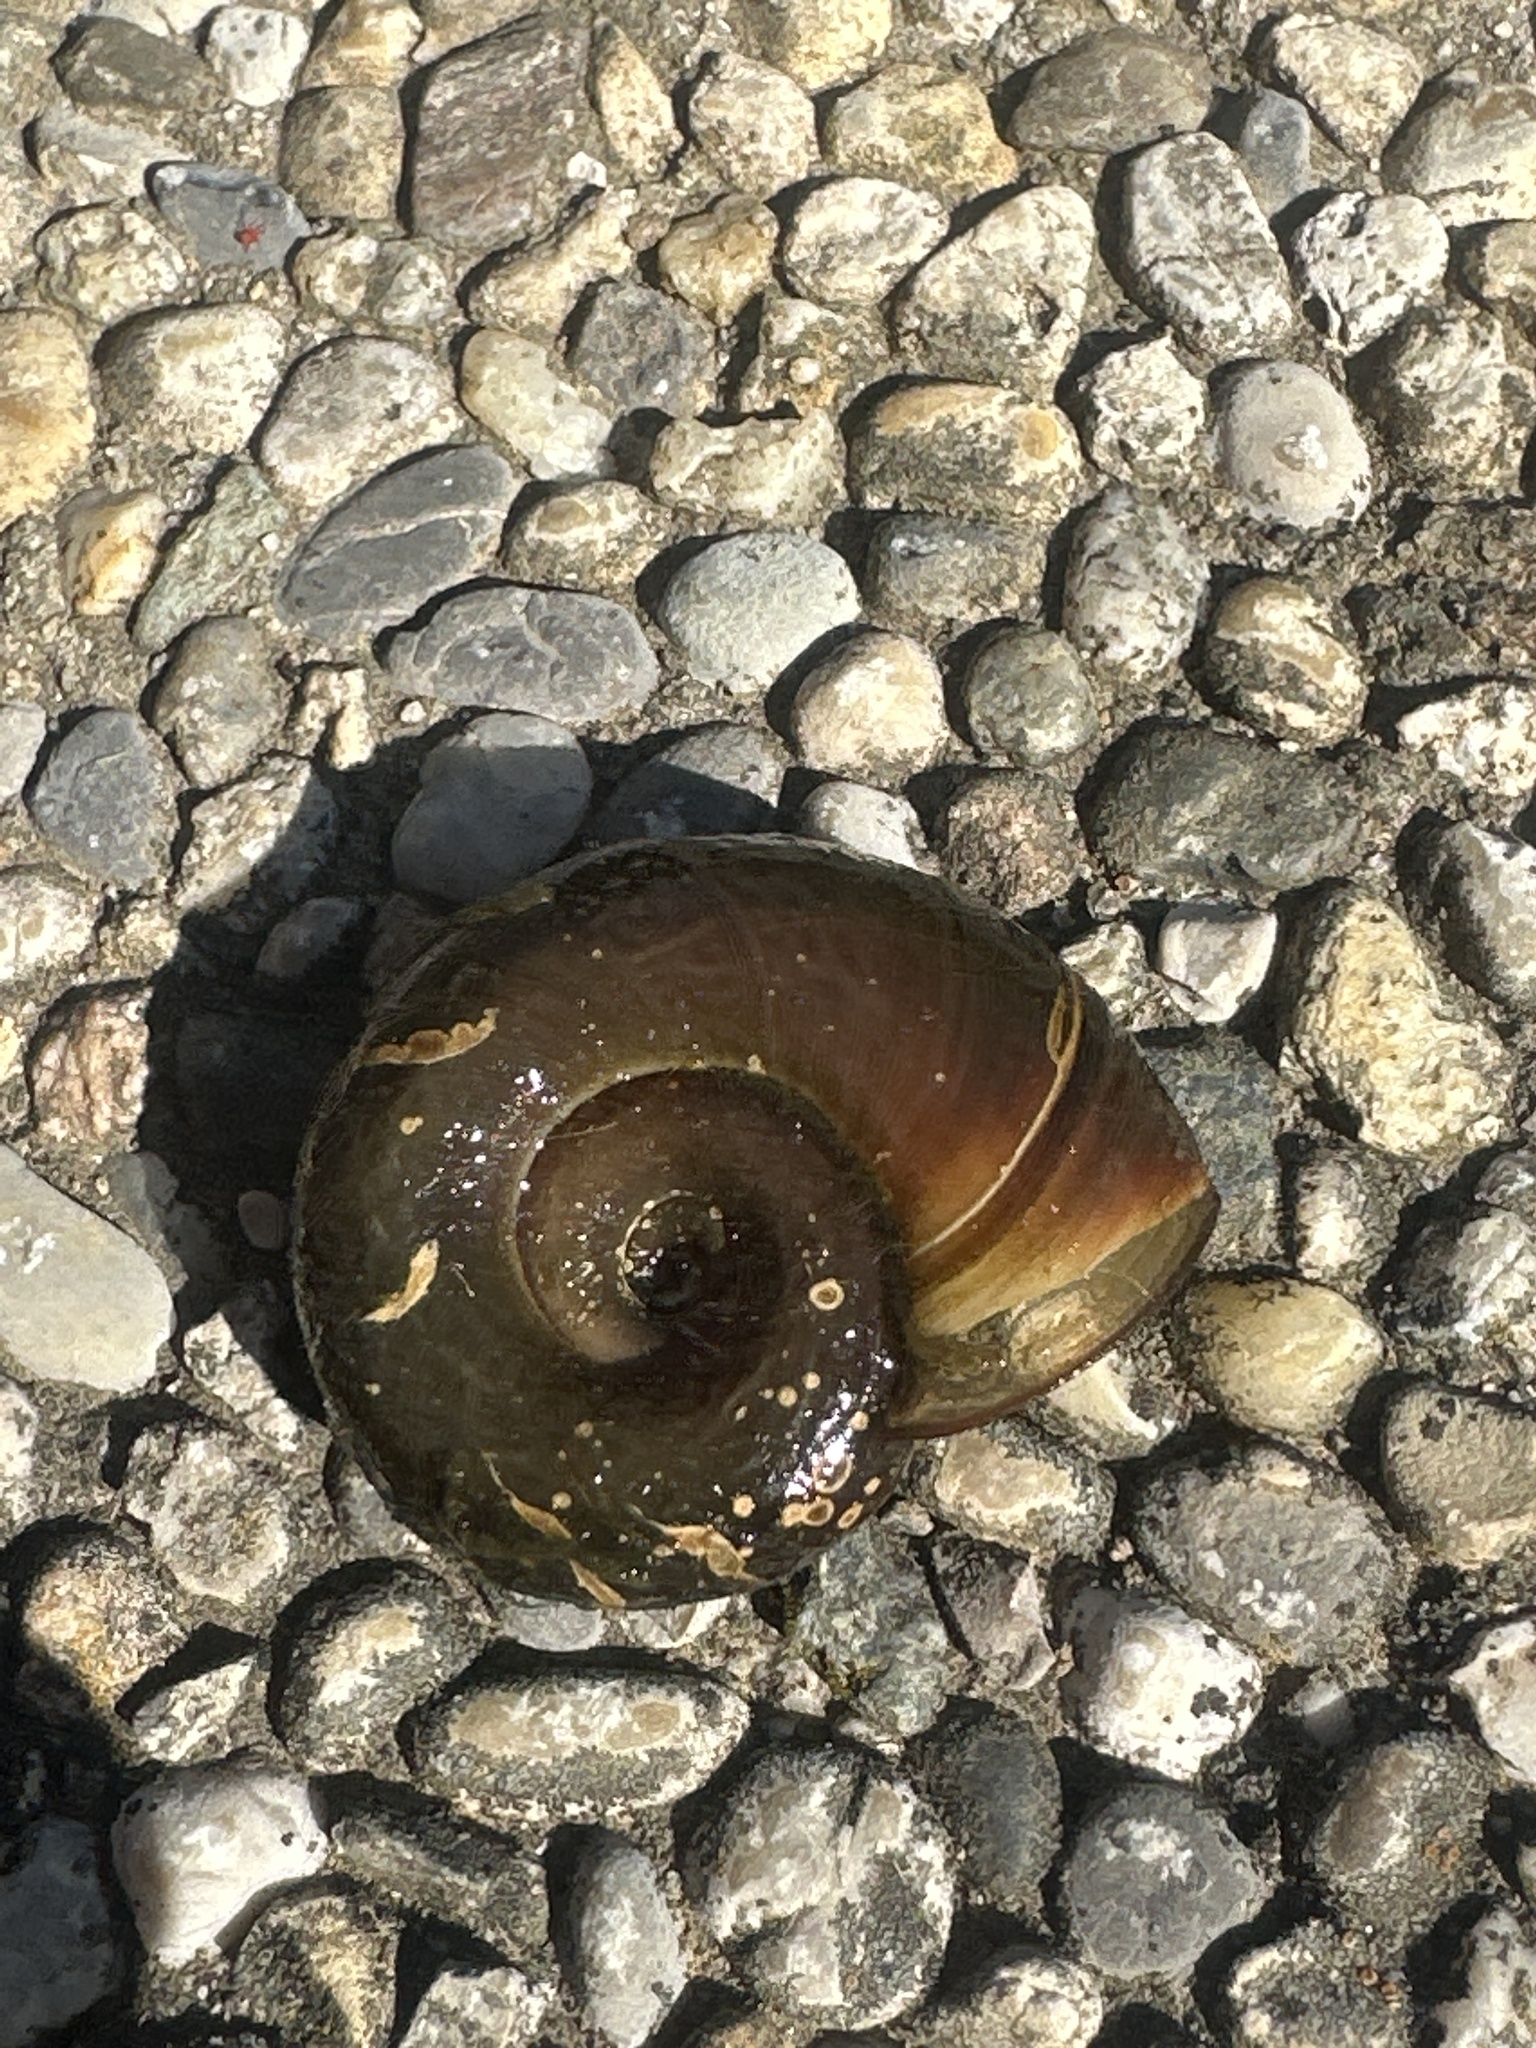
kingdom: Animalia
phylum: Mollusca
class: Gastropoda
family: Planorbidae
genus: Planorbarius
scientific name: Planorbarius corneus
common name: Great ramshorn
